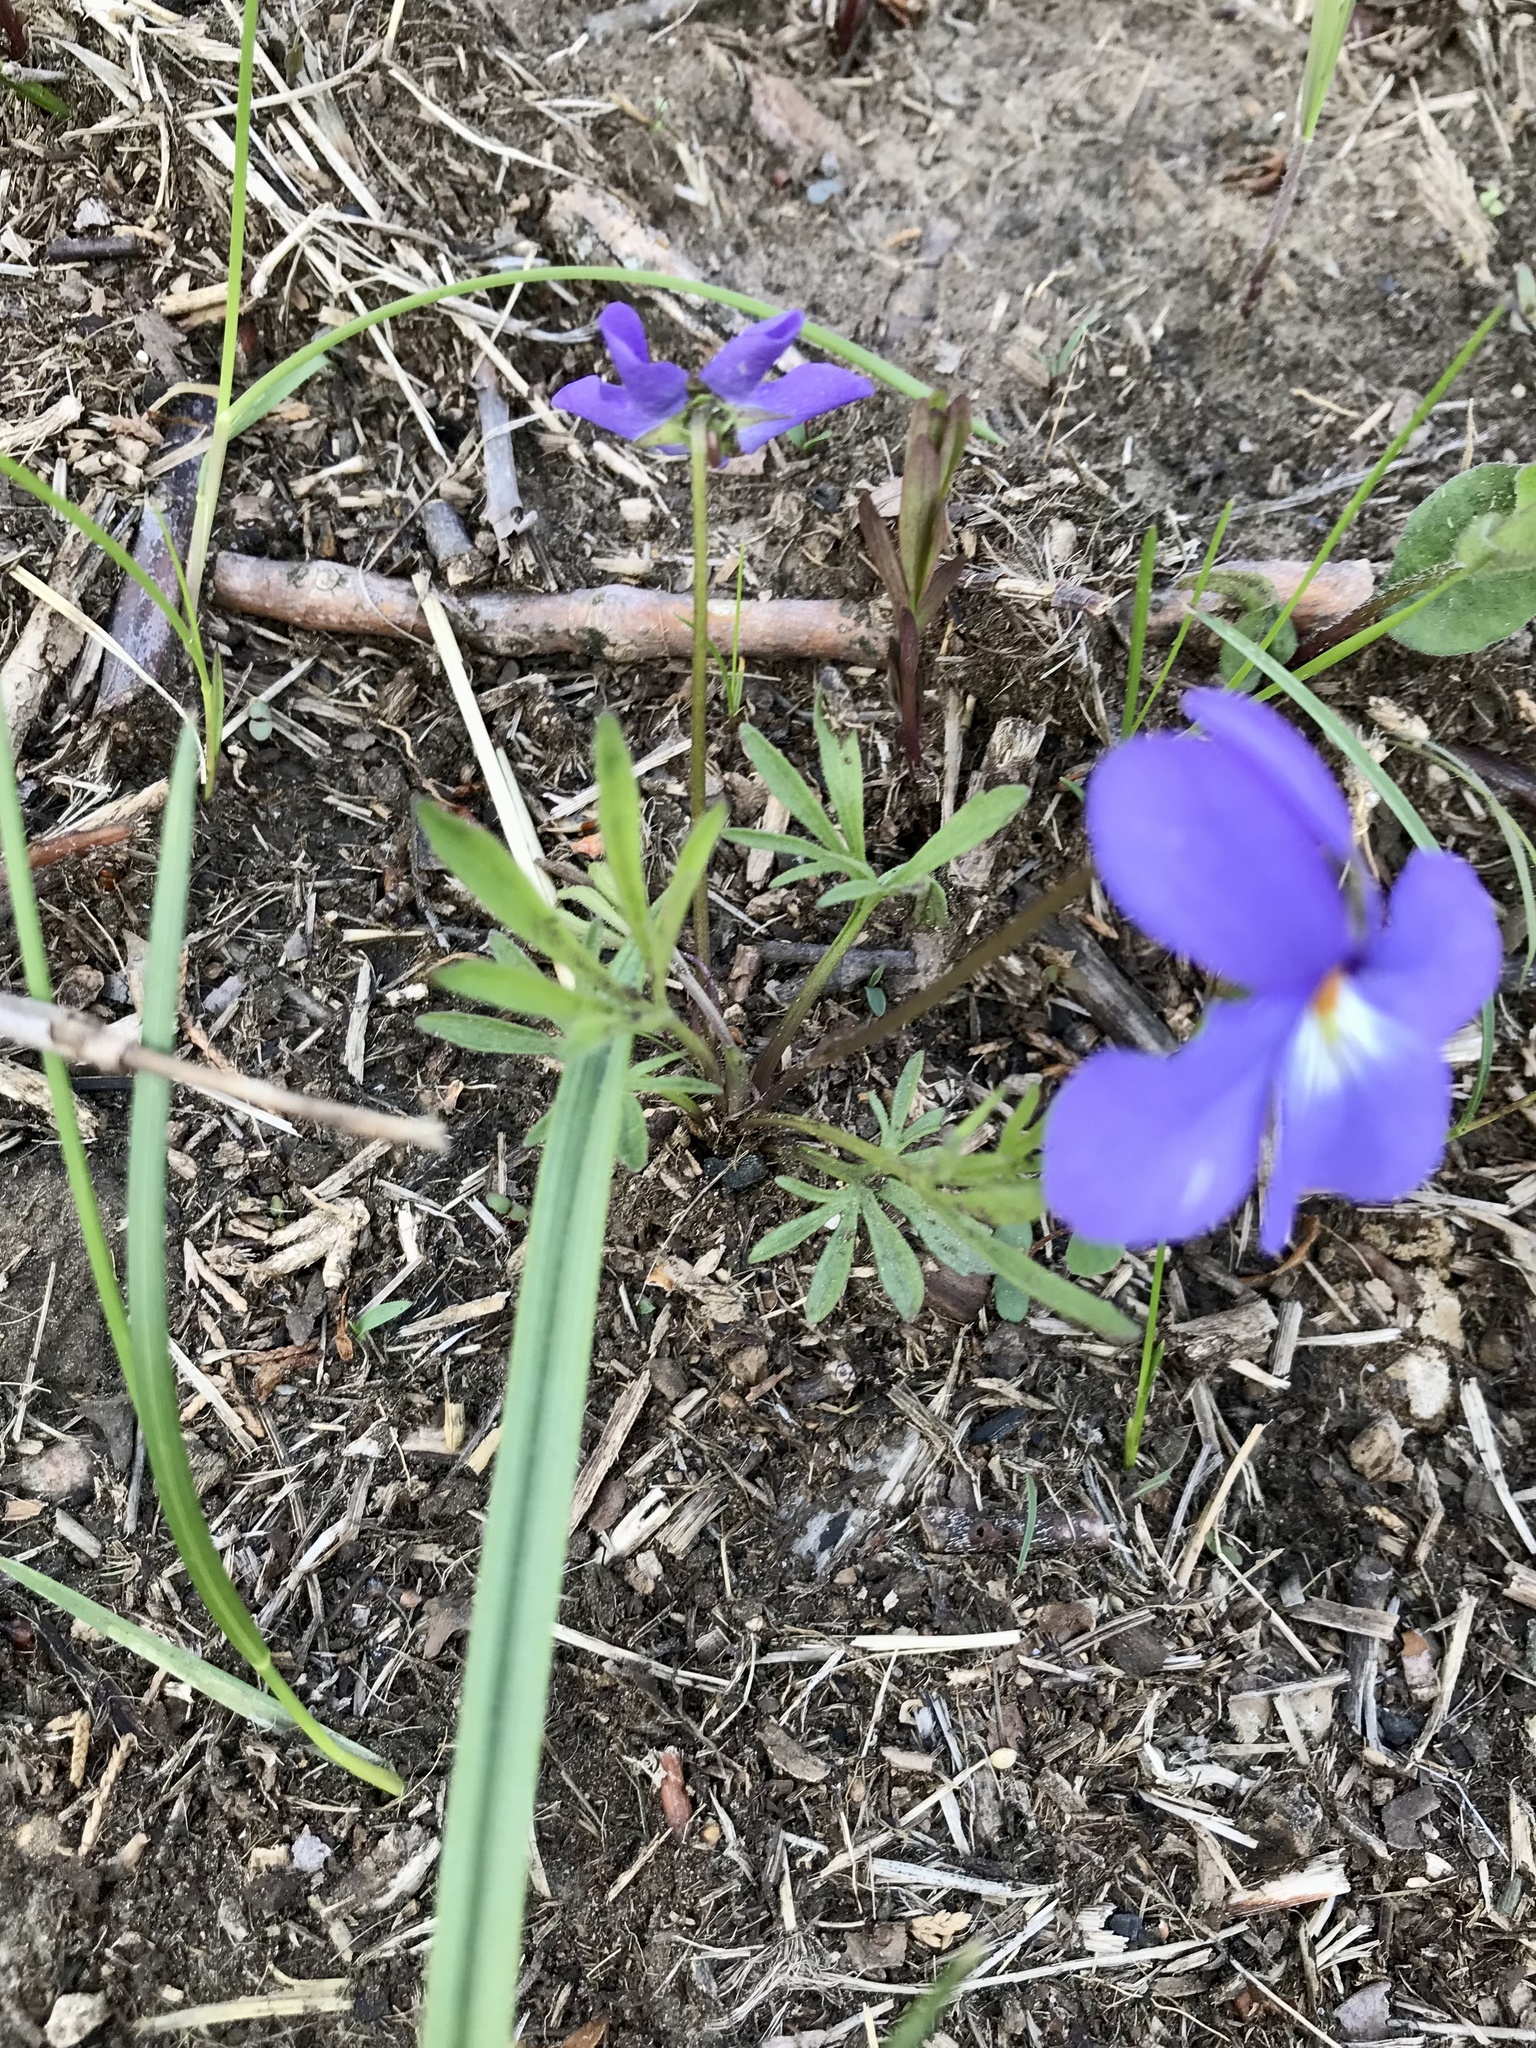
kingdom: Plantae
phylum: Tracheophyta
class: Magnoliopsida
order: Malpighiales
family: Violaceae
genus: Viola
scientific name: Viola pedata
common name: Pansy violet
